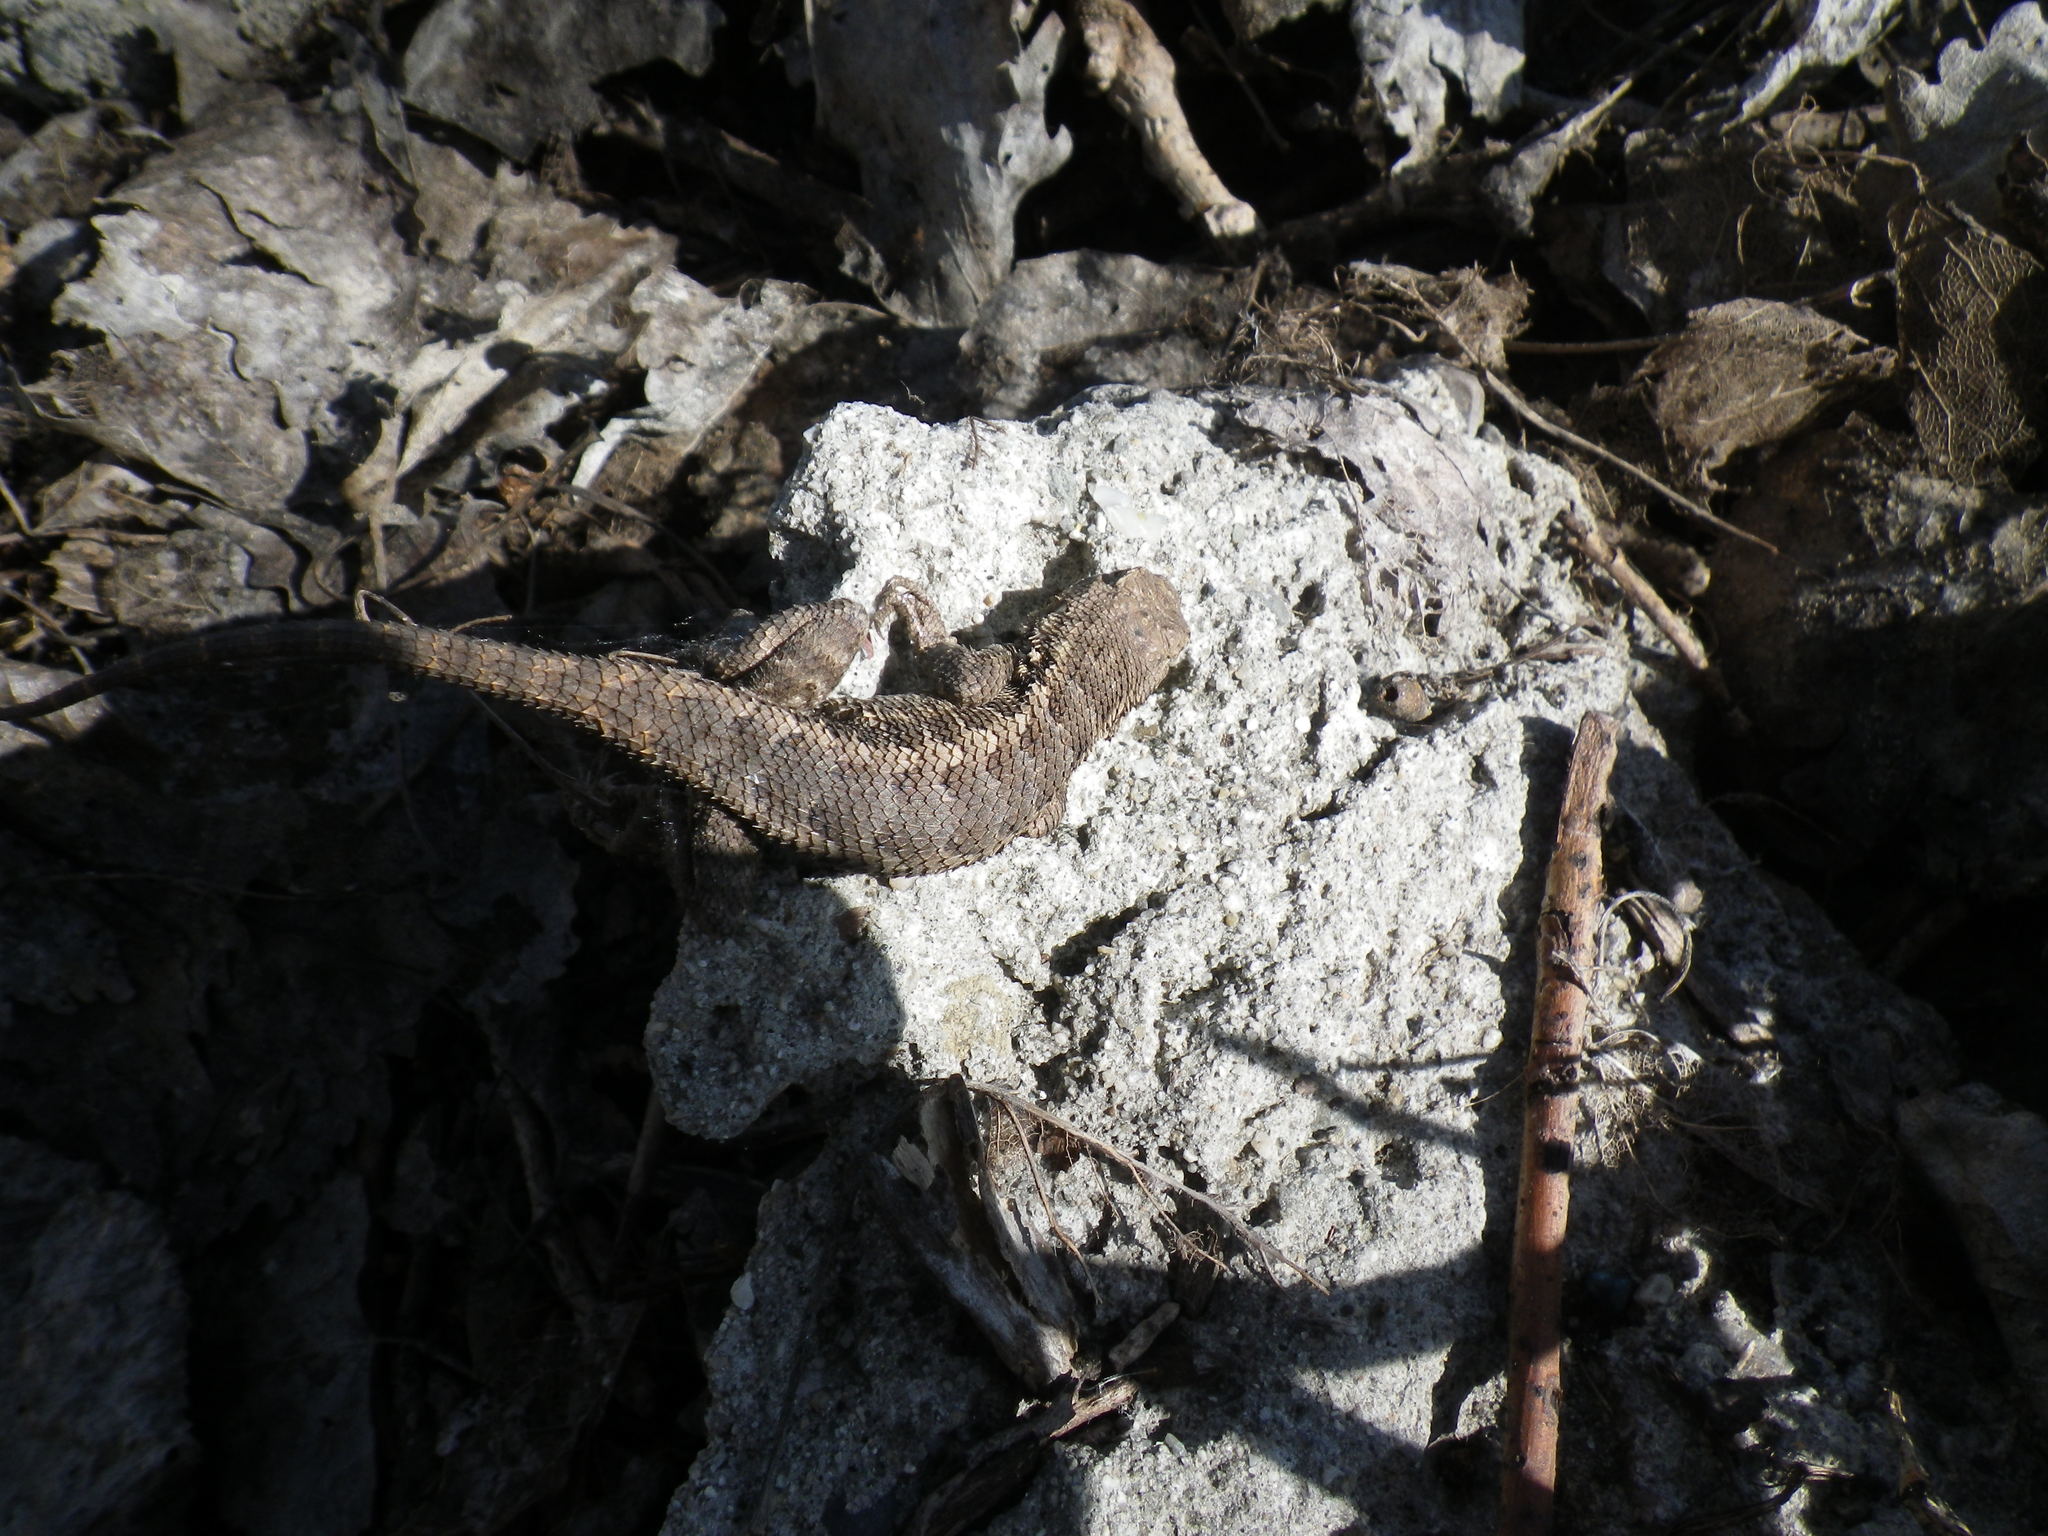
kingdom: Animalia
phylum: Chordata
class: Squamata
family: Phrynosomatidae
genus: Sceloporus
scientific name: Sceloporus occidentalis
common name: Western fence lizard
